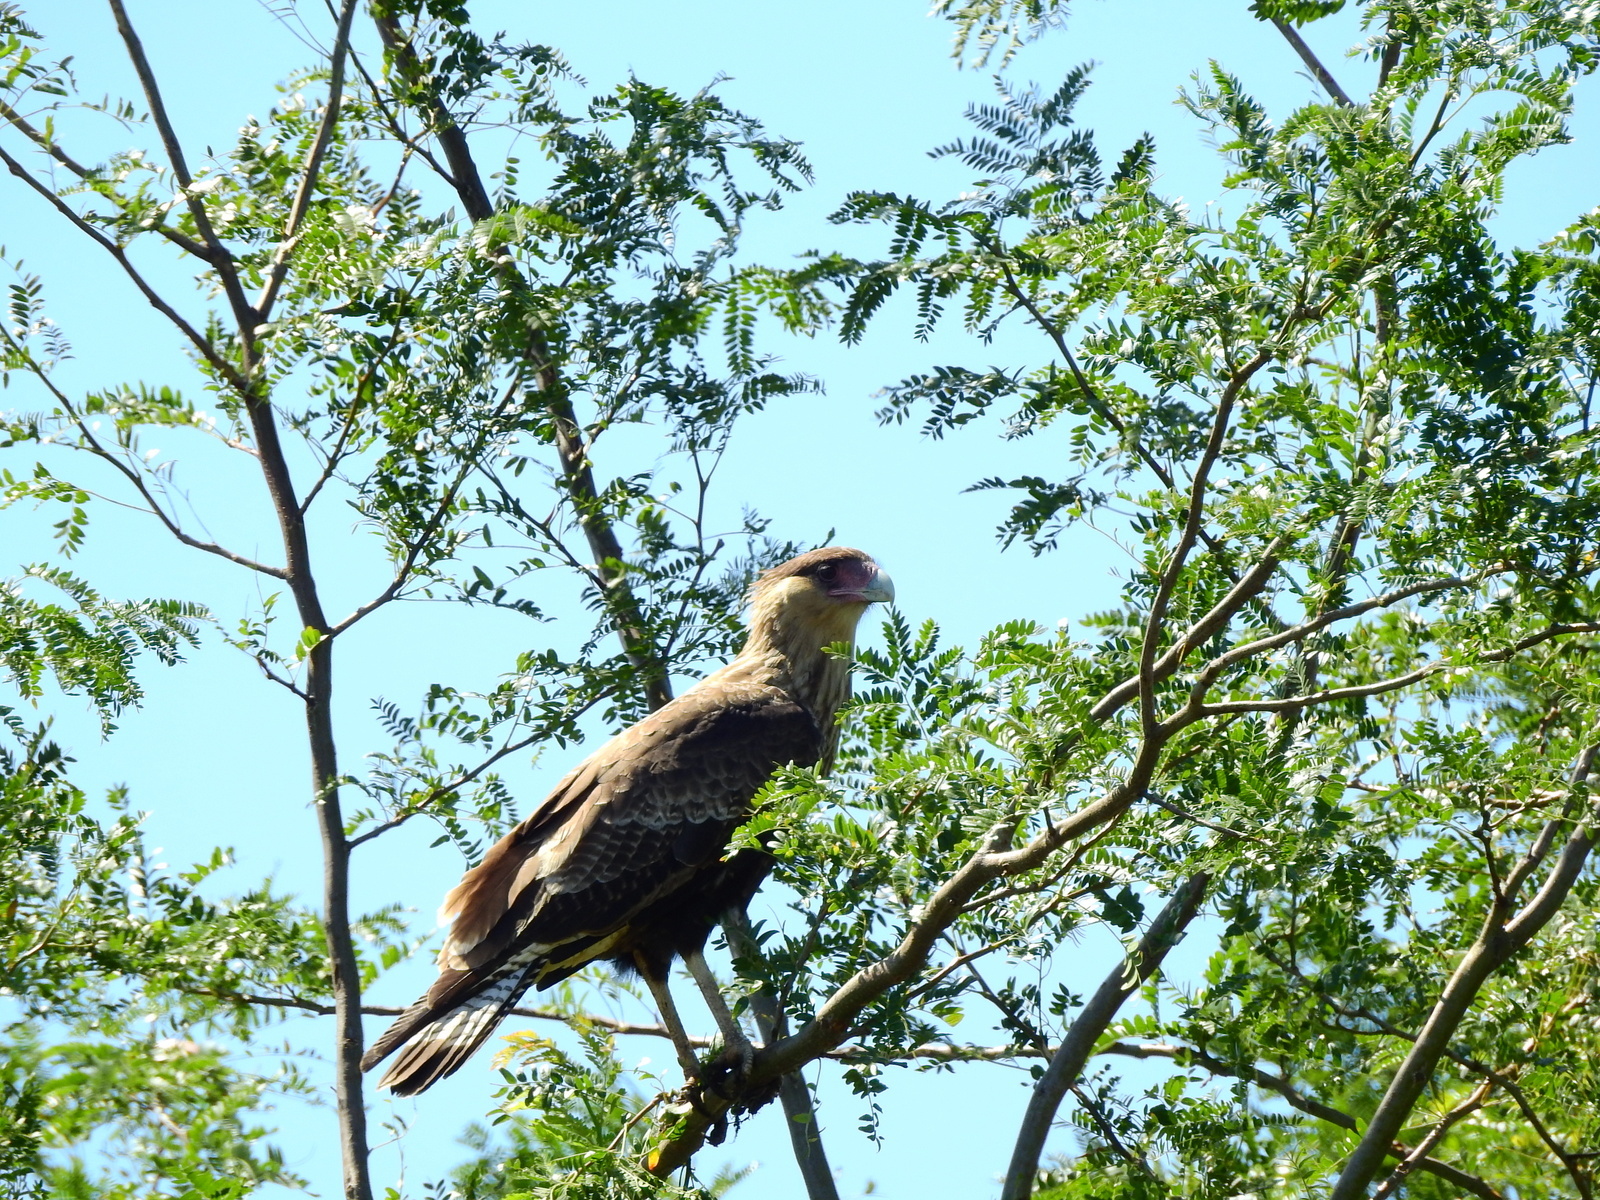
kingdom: Animalia
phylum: Chordata
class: Aves
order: Falconiformes
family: Falconidae
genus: Caracara
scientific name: Caracara plancus
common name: Southern caracara
